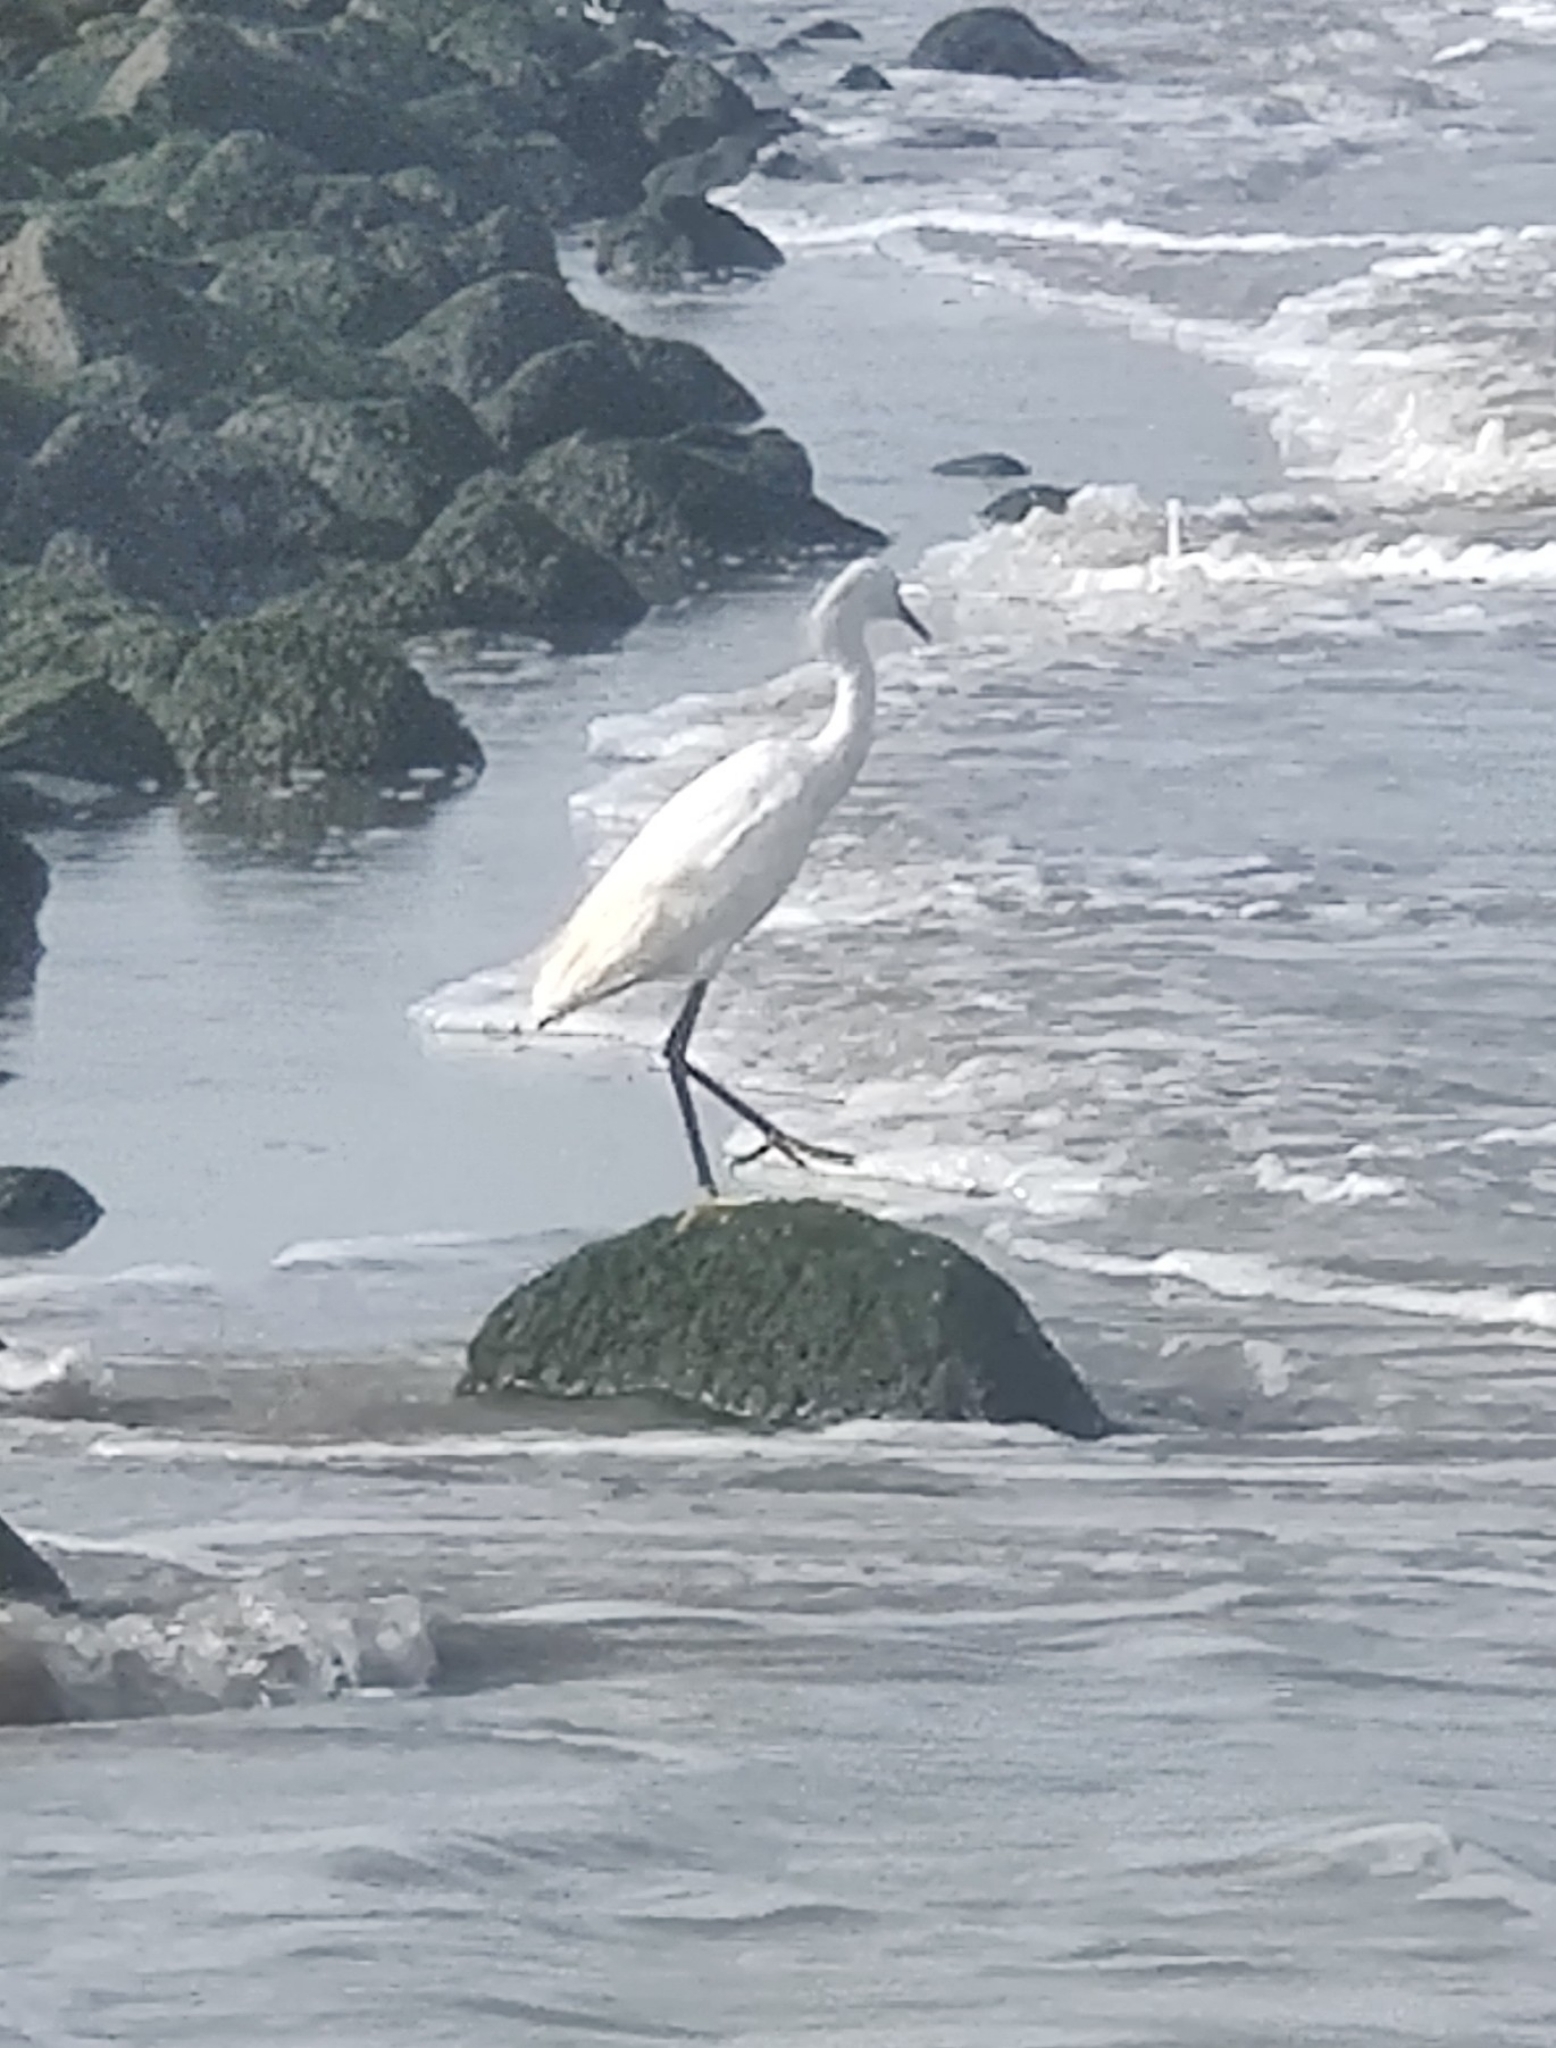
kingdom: Animalia
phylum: Chordata
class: Aves
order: Pelecaniformes
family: Ardeidae
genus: Egretta
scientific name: Egretta thula
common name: Snowy egret
